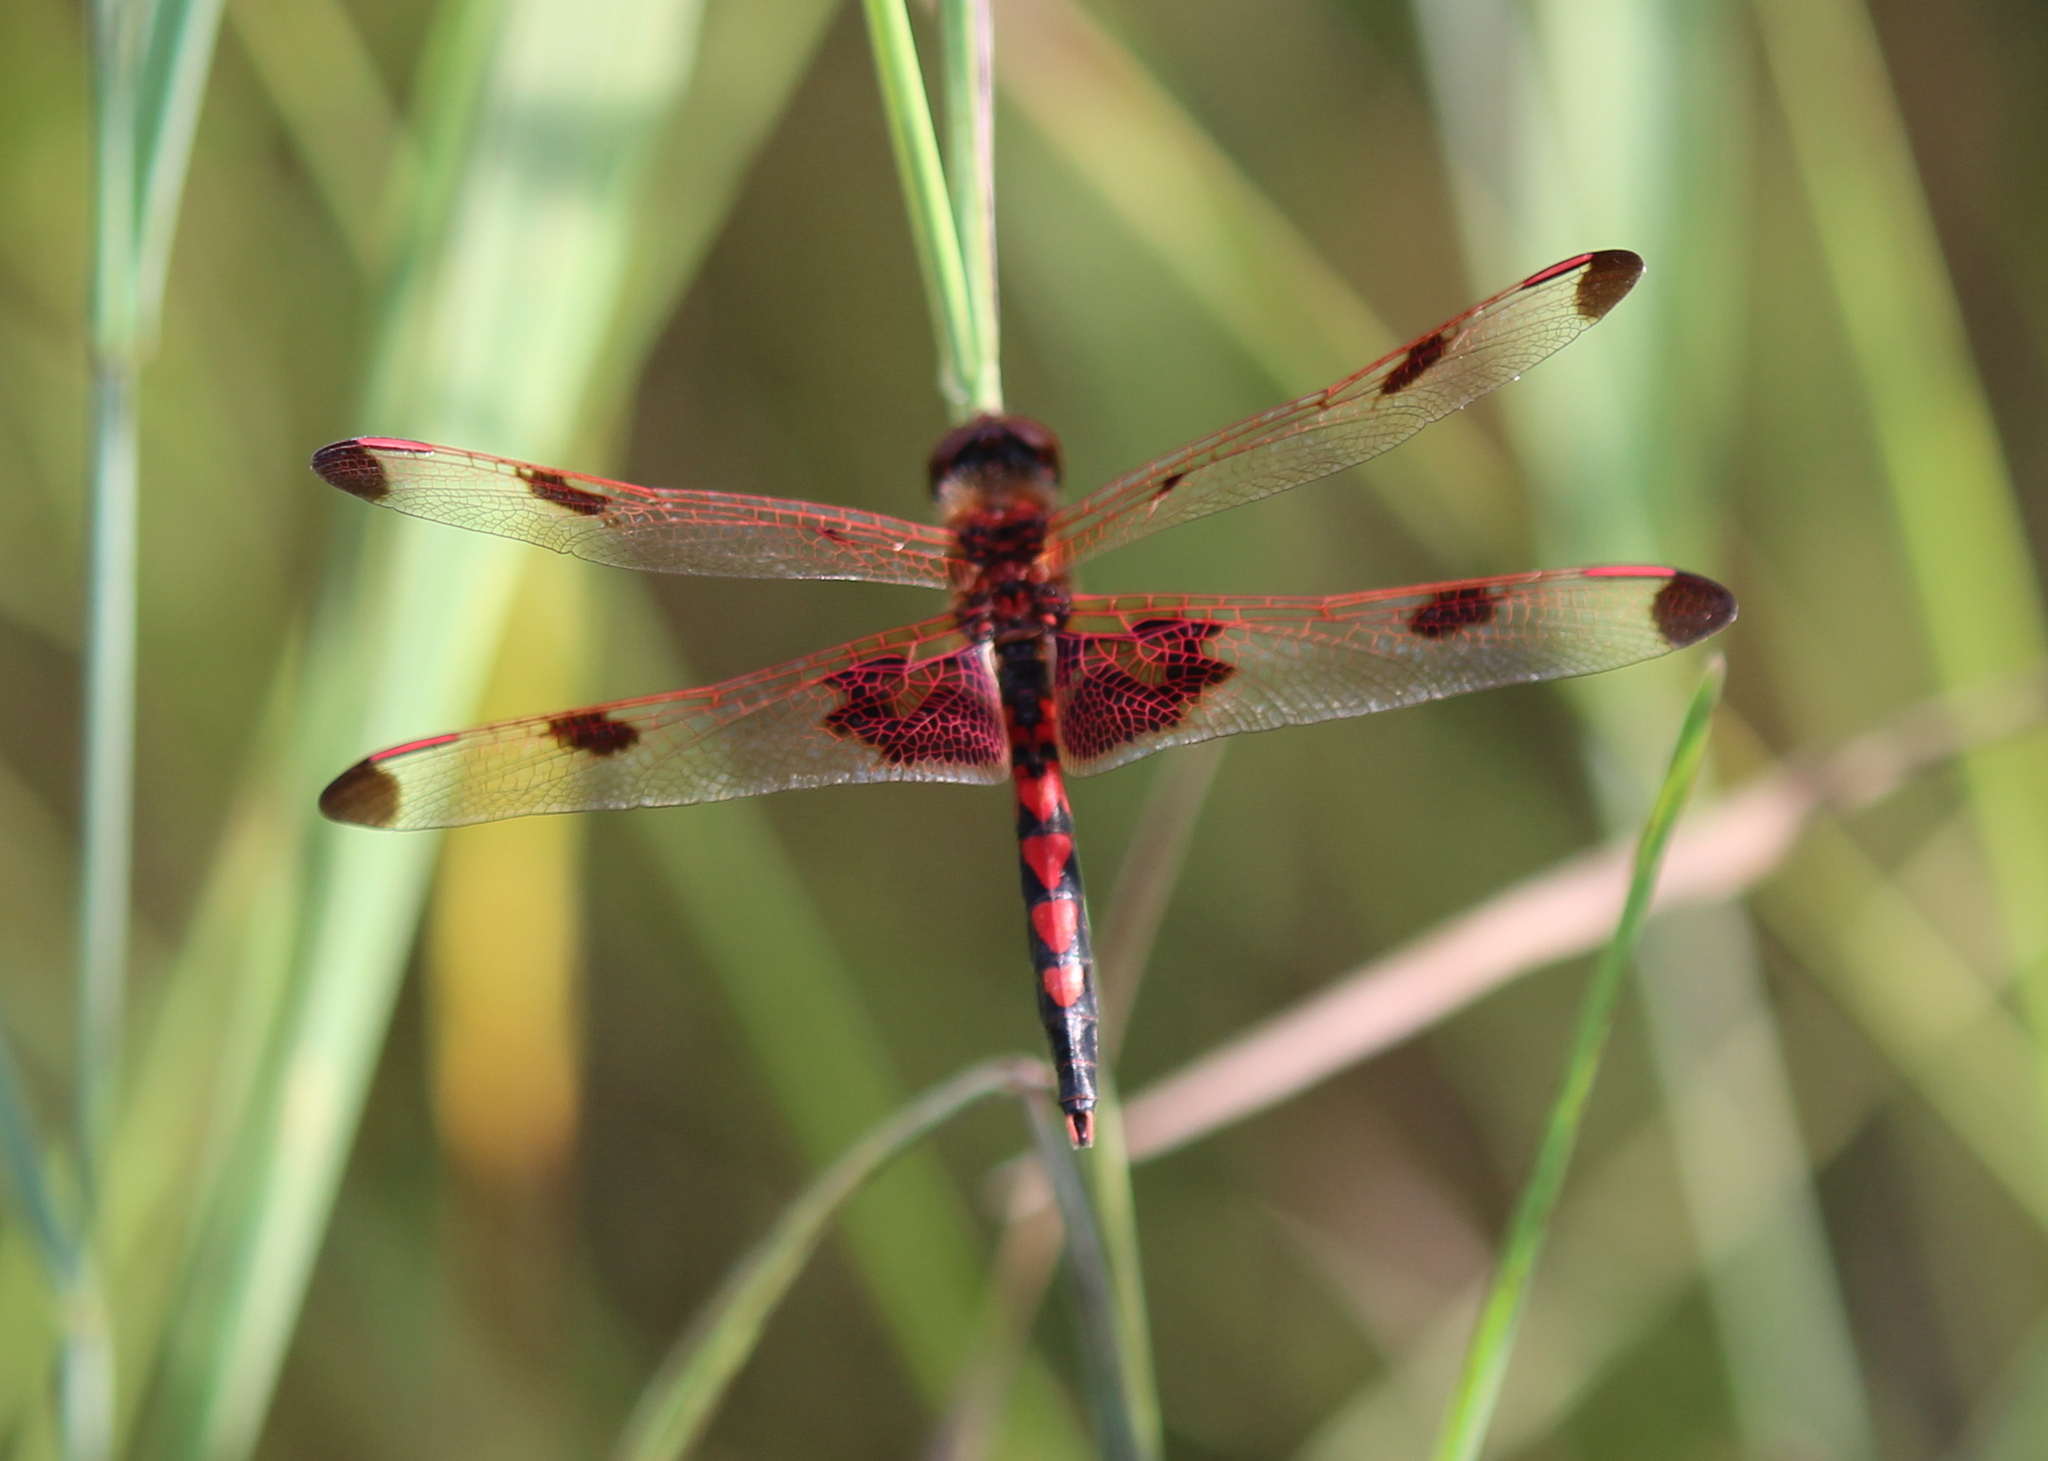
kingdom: Animalia
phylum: Arthropoda
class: Insecta
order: Odonata
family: Libellulidae
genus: Celithemis
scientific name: Celithemis elisa
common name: Calico pennant
